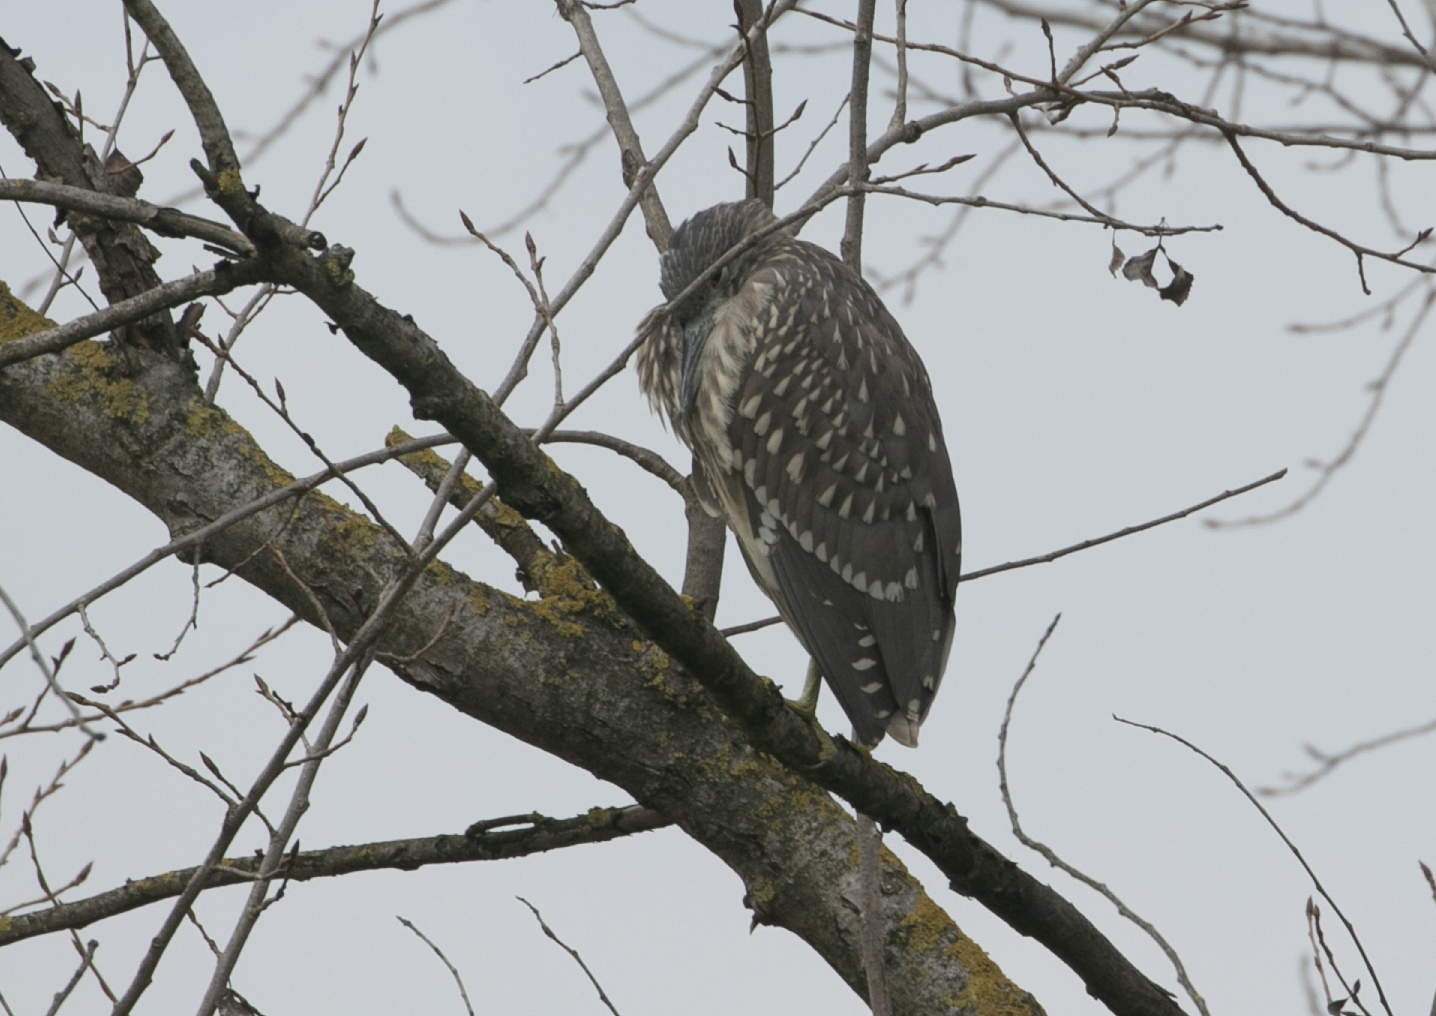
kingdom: Animalia
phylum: Chordata
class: Aves
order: Pelecaniformes
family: Ardeidae
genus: Nycticorax
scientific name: Nycticorax nycticorax
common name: Black-crowned night heron
